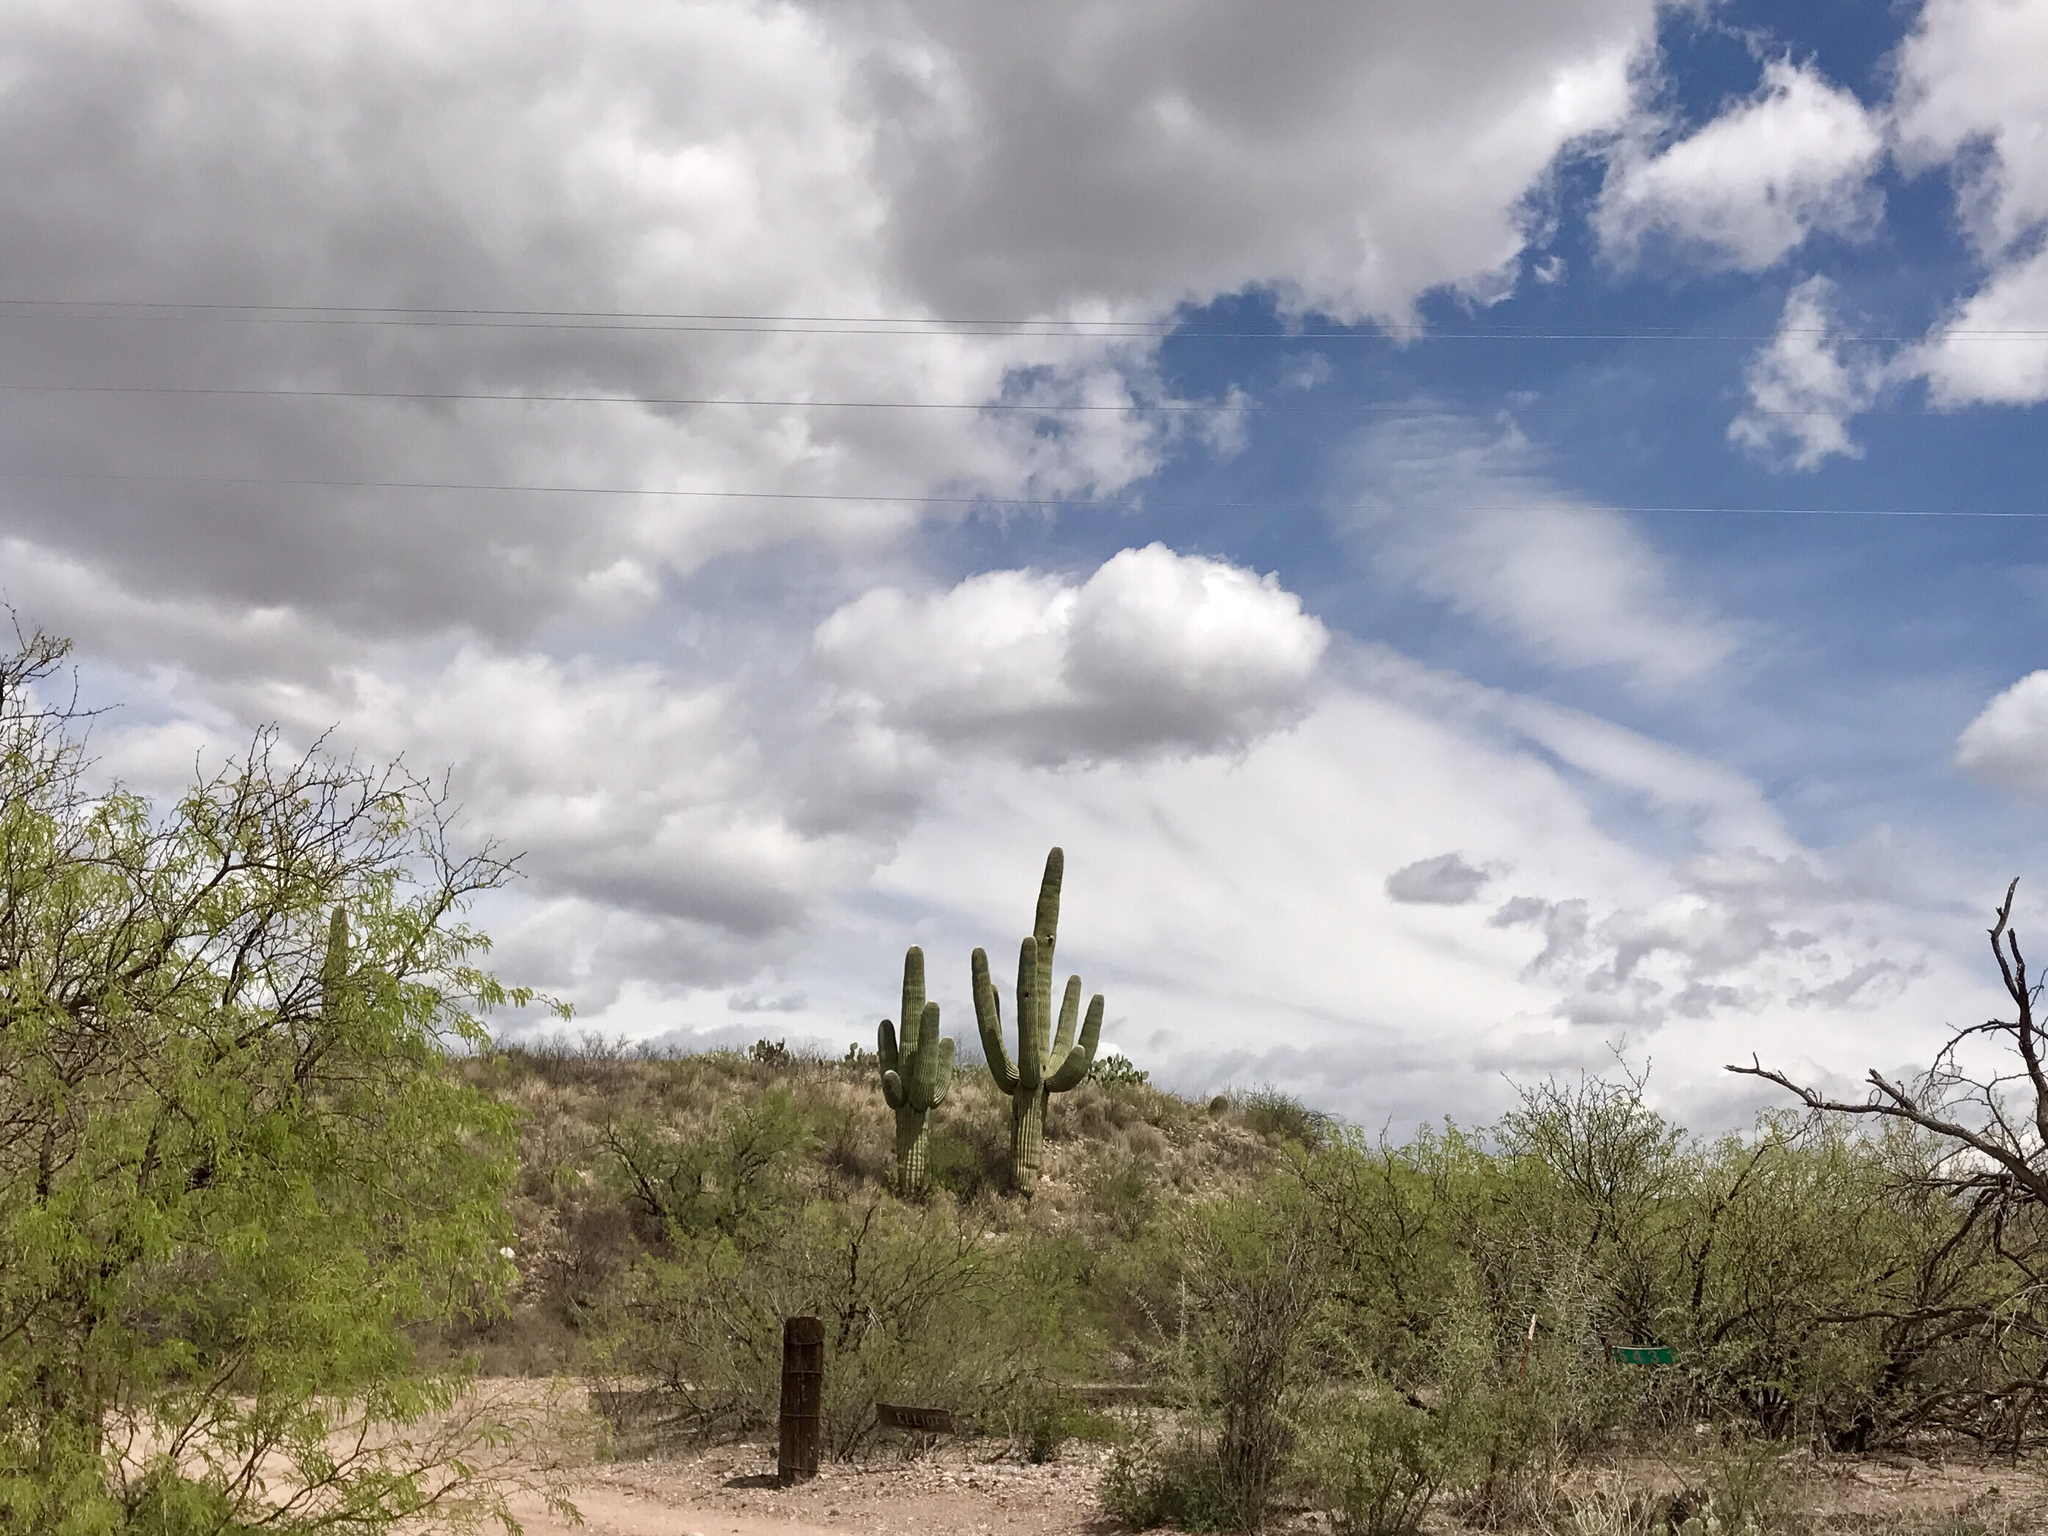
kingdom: Plantae
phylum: Tracheophyta
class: Magnoliopsida
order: Caryophyllales
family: Cactaceae
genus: Carnegiea
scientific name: Carnegiea gigantea
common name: Saguaro
